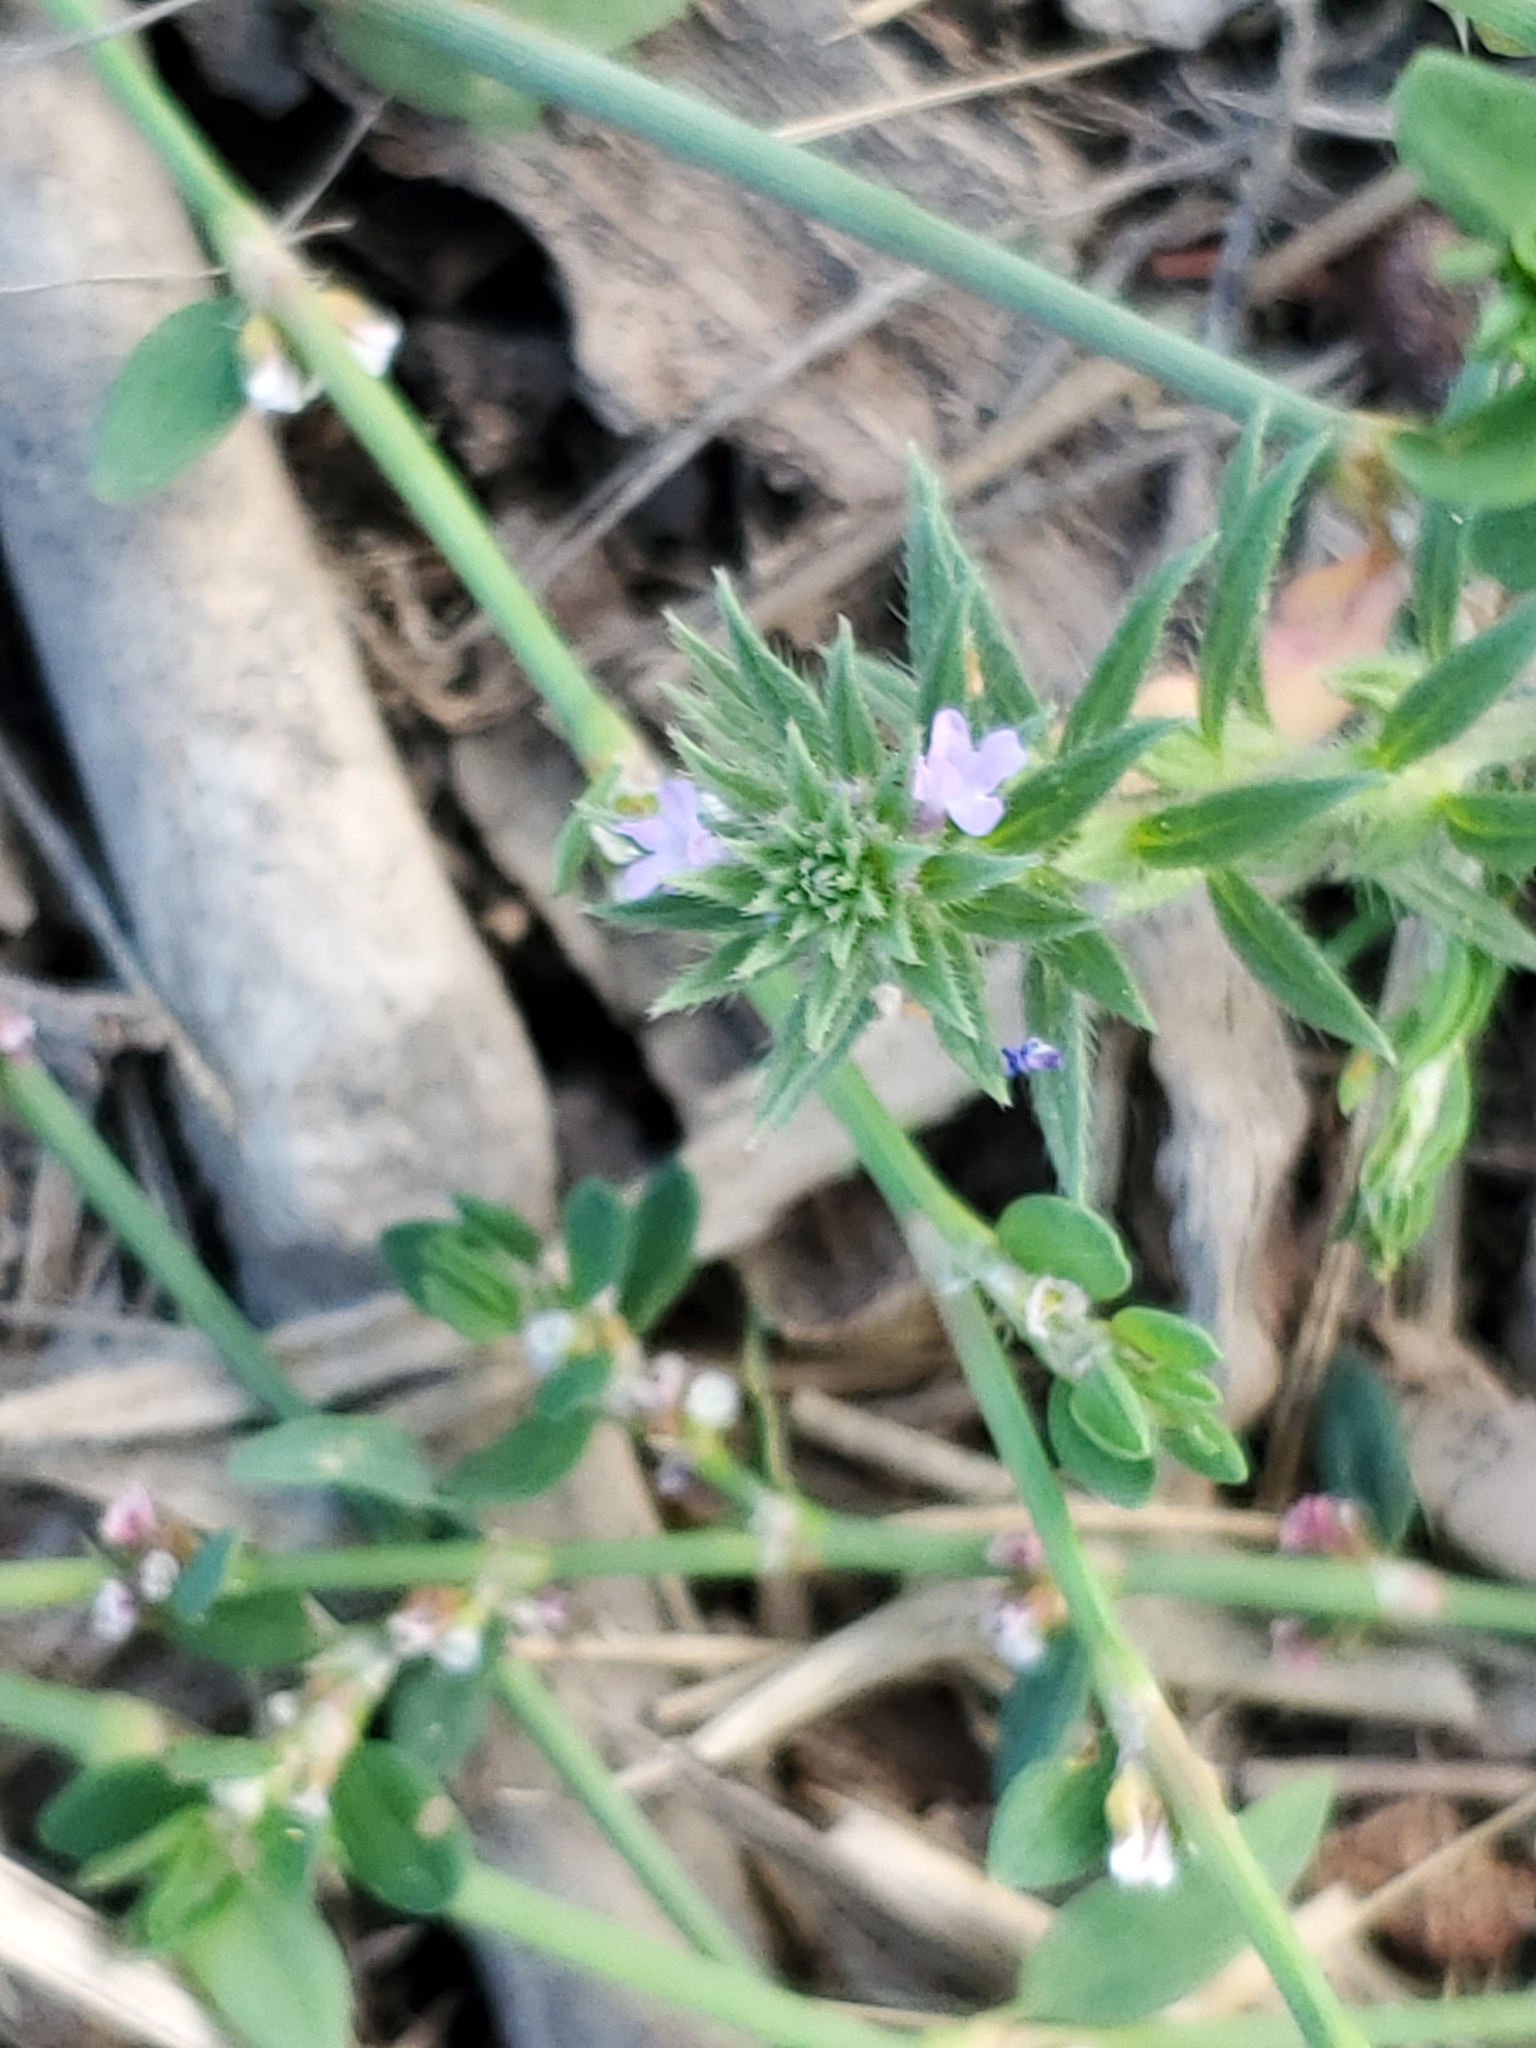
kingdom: Plantae
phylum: Tracheophyta
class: Magnoliopsida
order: Lamiales
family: Verbenaceae
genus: Verbena
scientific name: Verbena bracteata
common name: Bracted vervain
